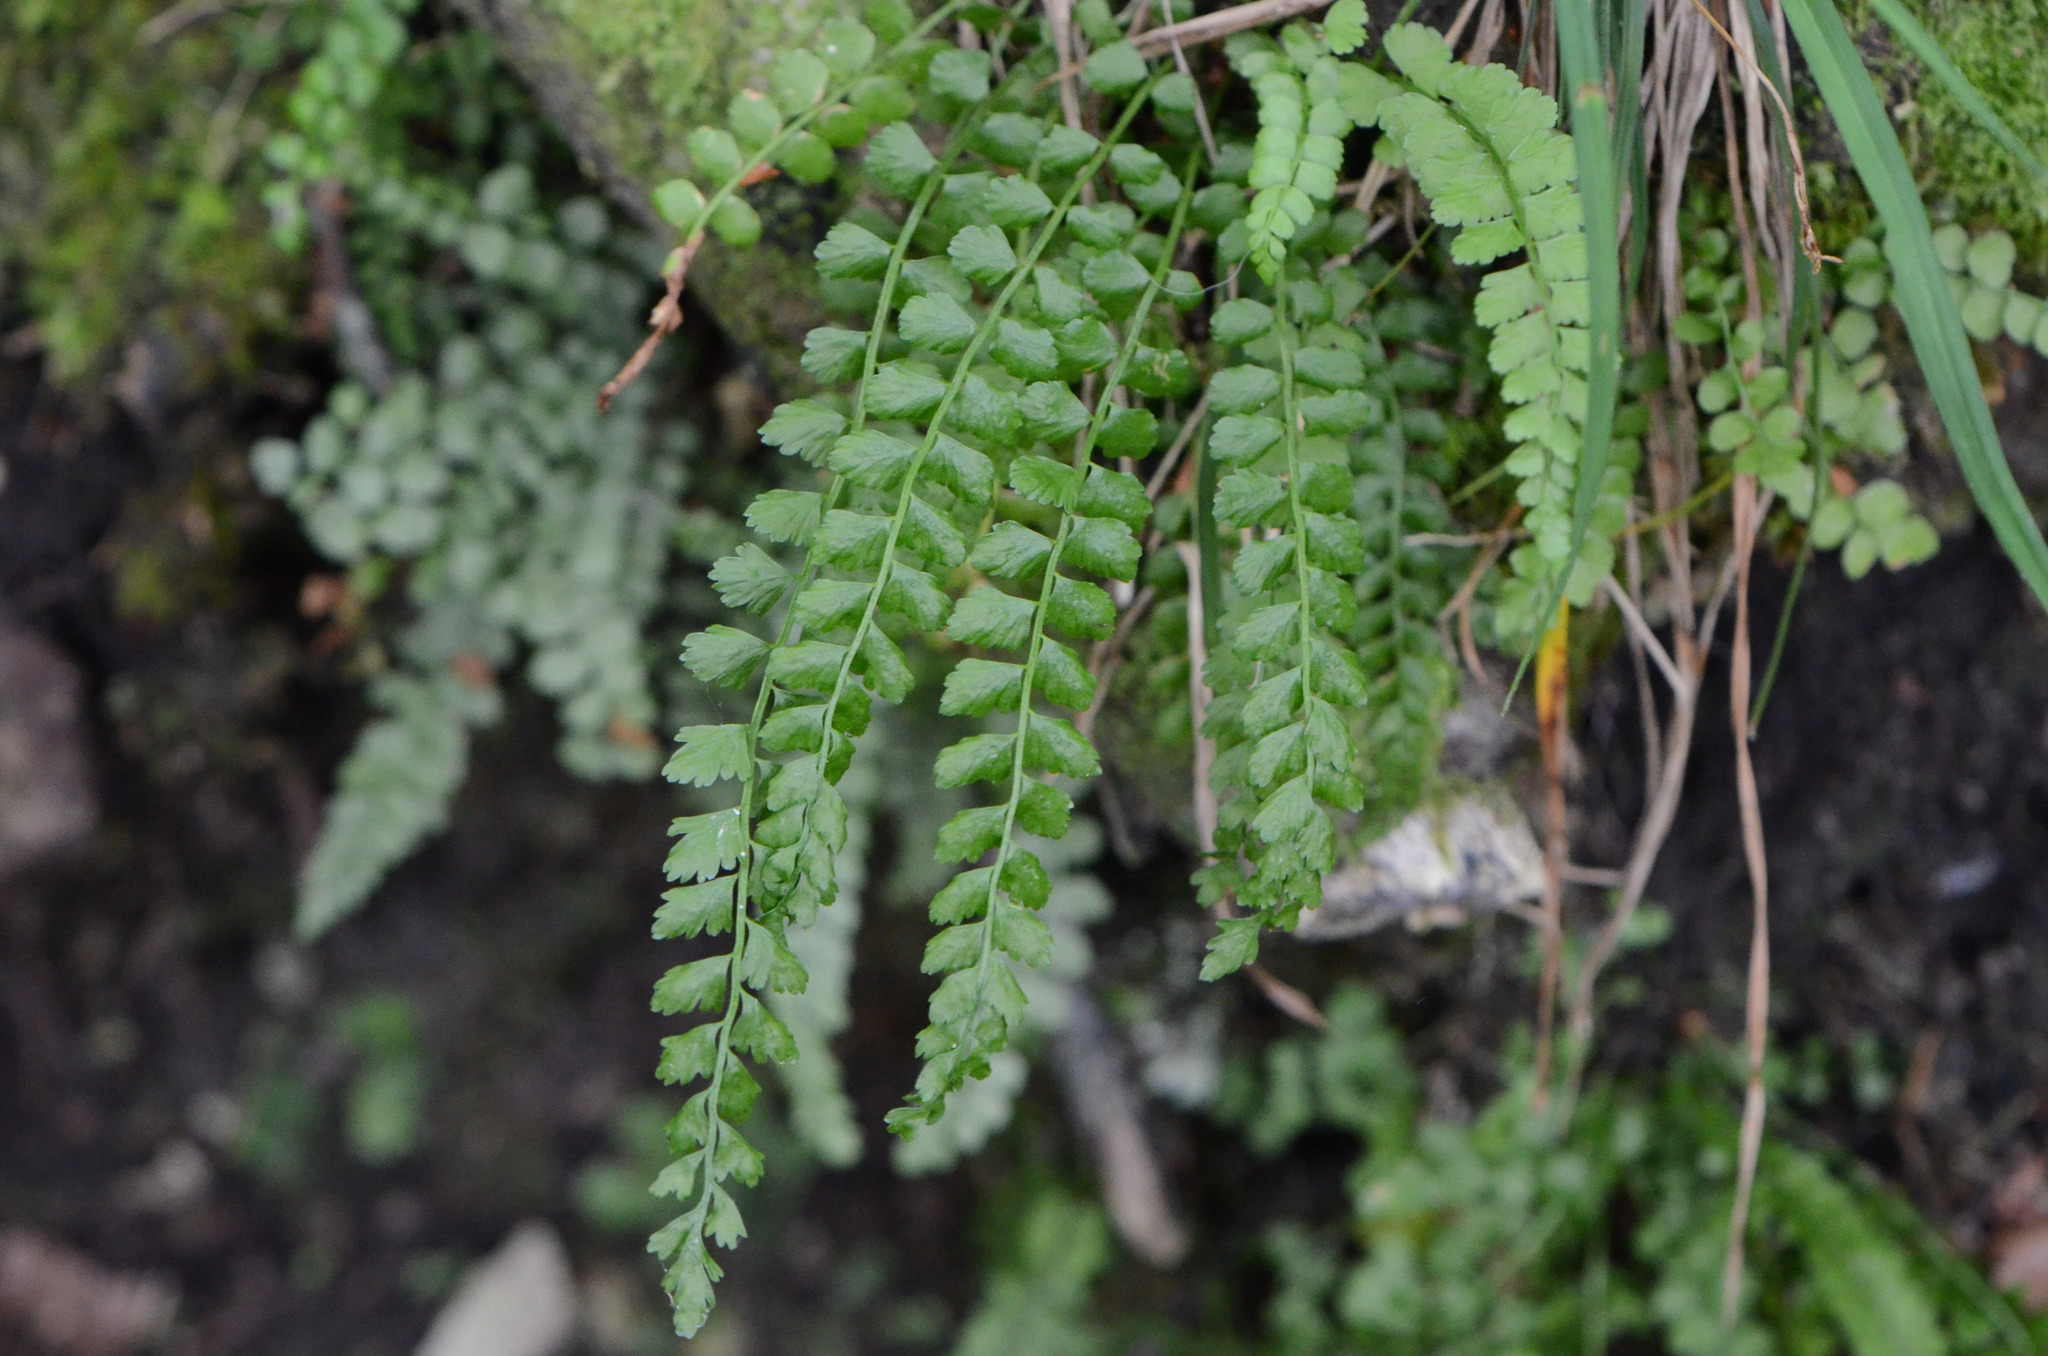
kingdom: Plantae
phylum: Tracheophyta
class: Polypodiopsida
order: Polypodiales
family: Aspleniaceae
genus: Asplenium
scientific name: Asplenium viride
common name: Green spleenwort
